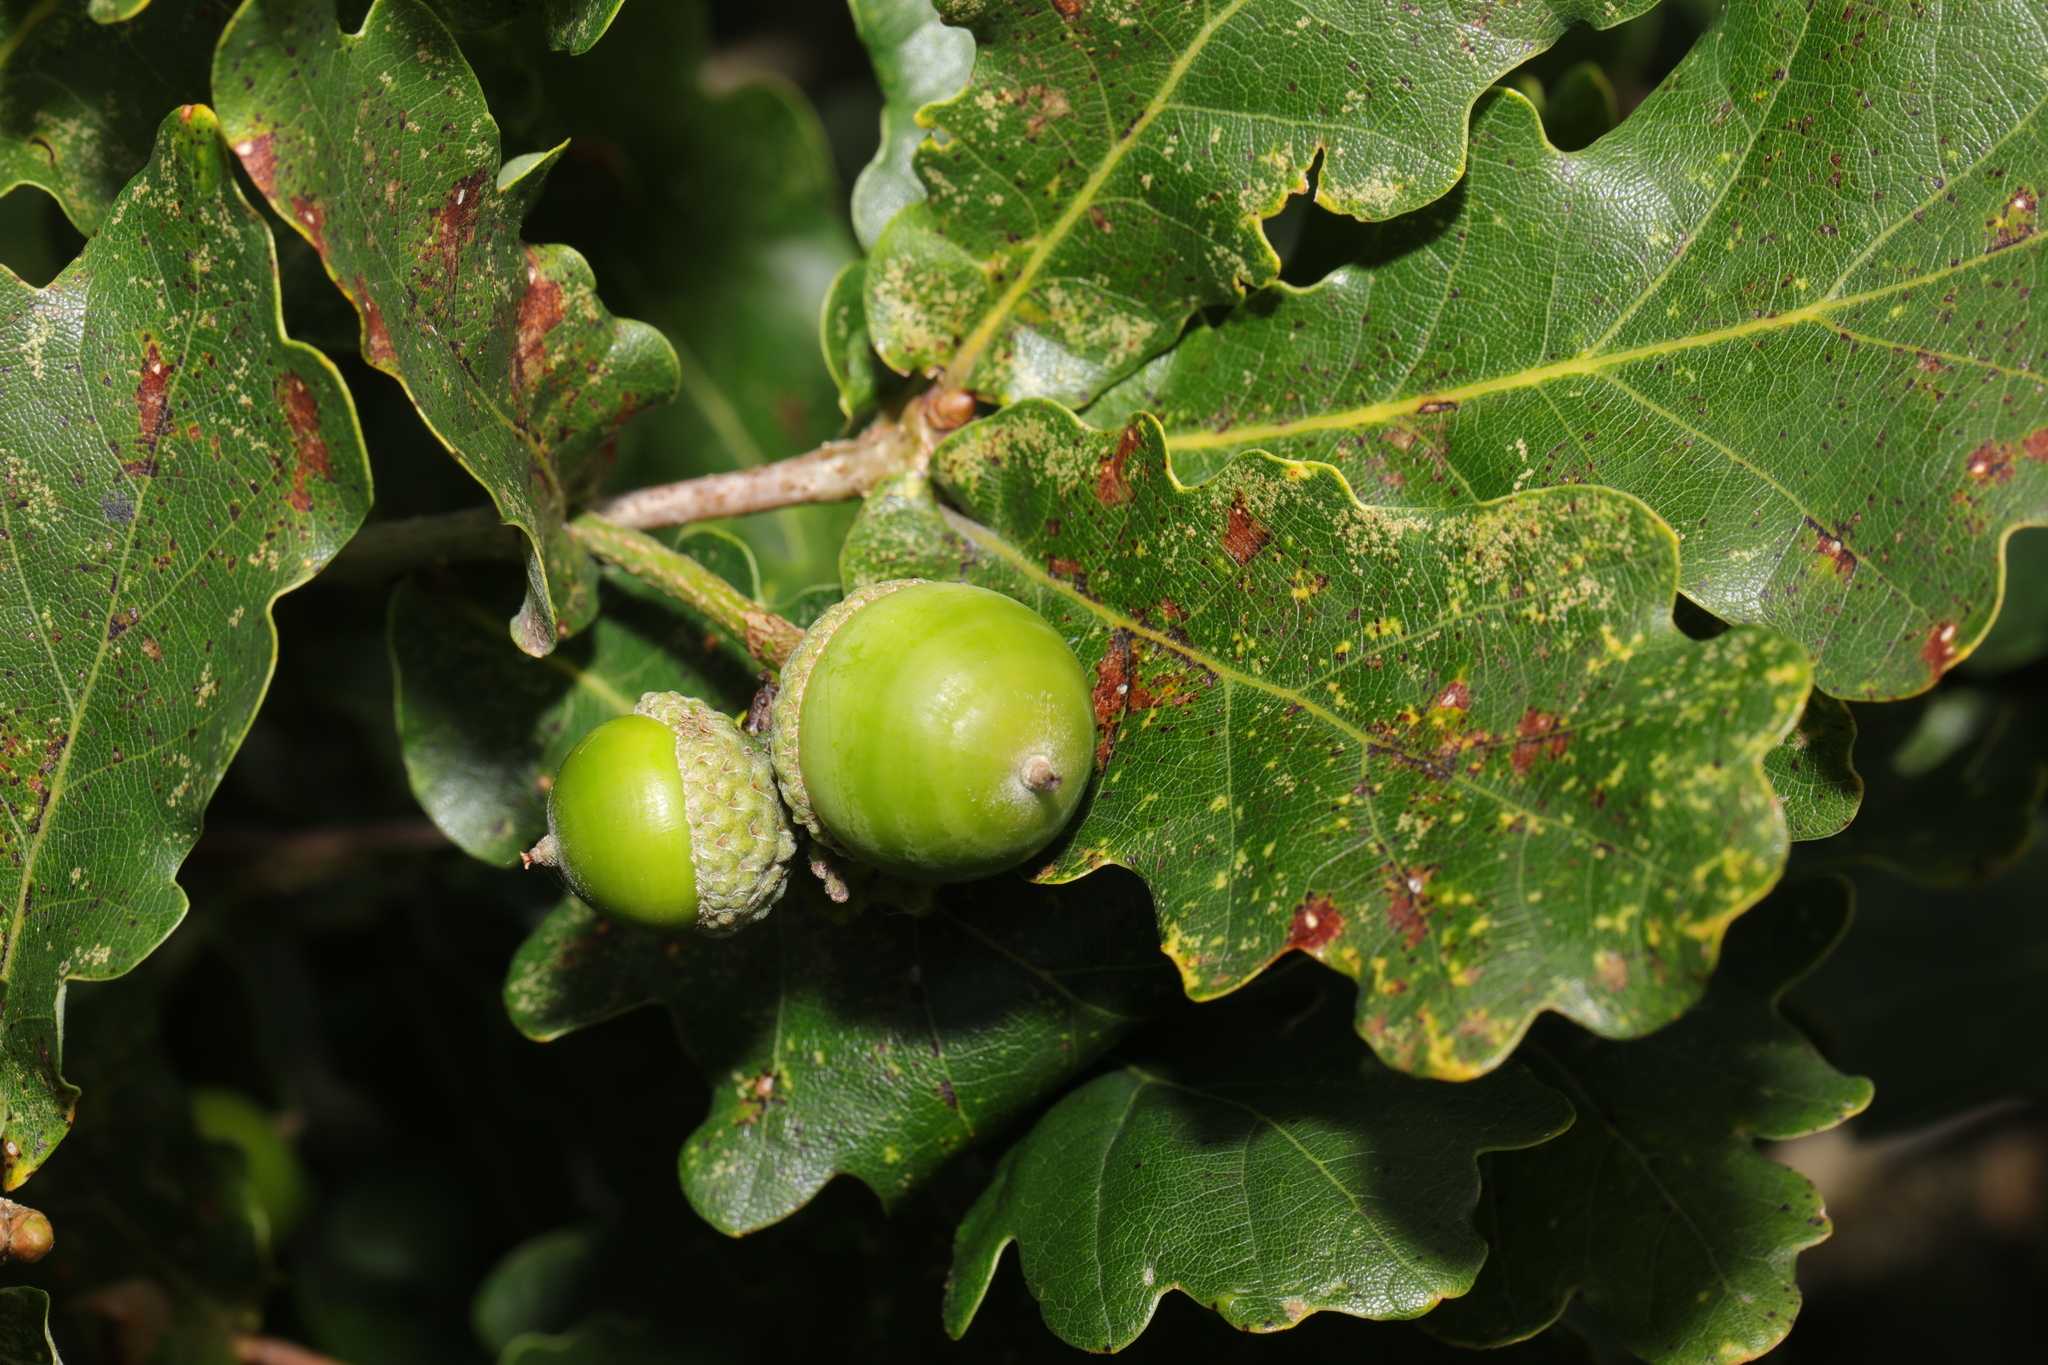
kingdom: Plantae
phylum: Tracheophyta
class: Magnoliopsida
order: Fagales
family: Fagaceae
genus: Quercus
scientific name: Quercus robur
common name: Pedunculate oak
